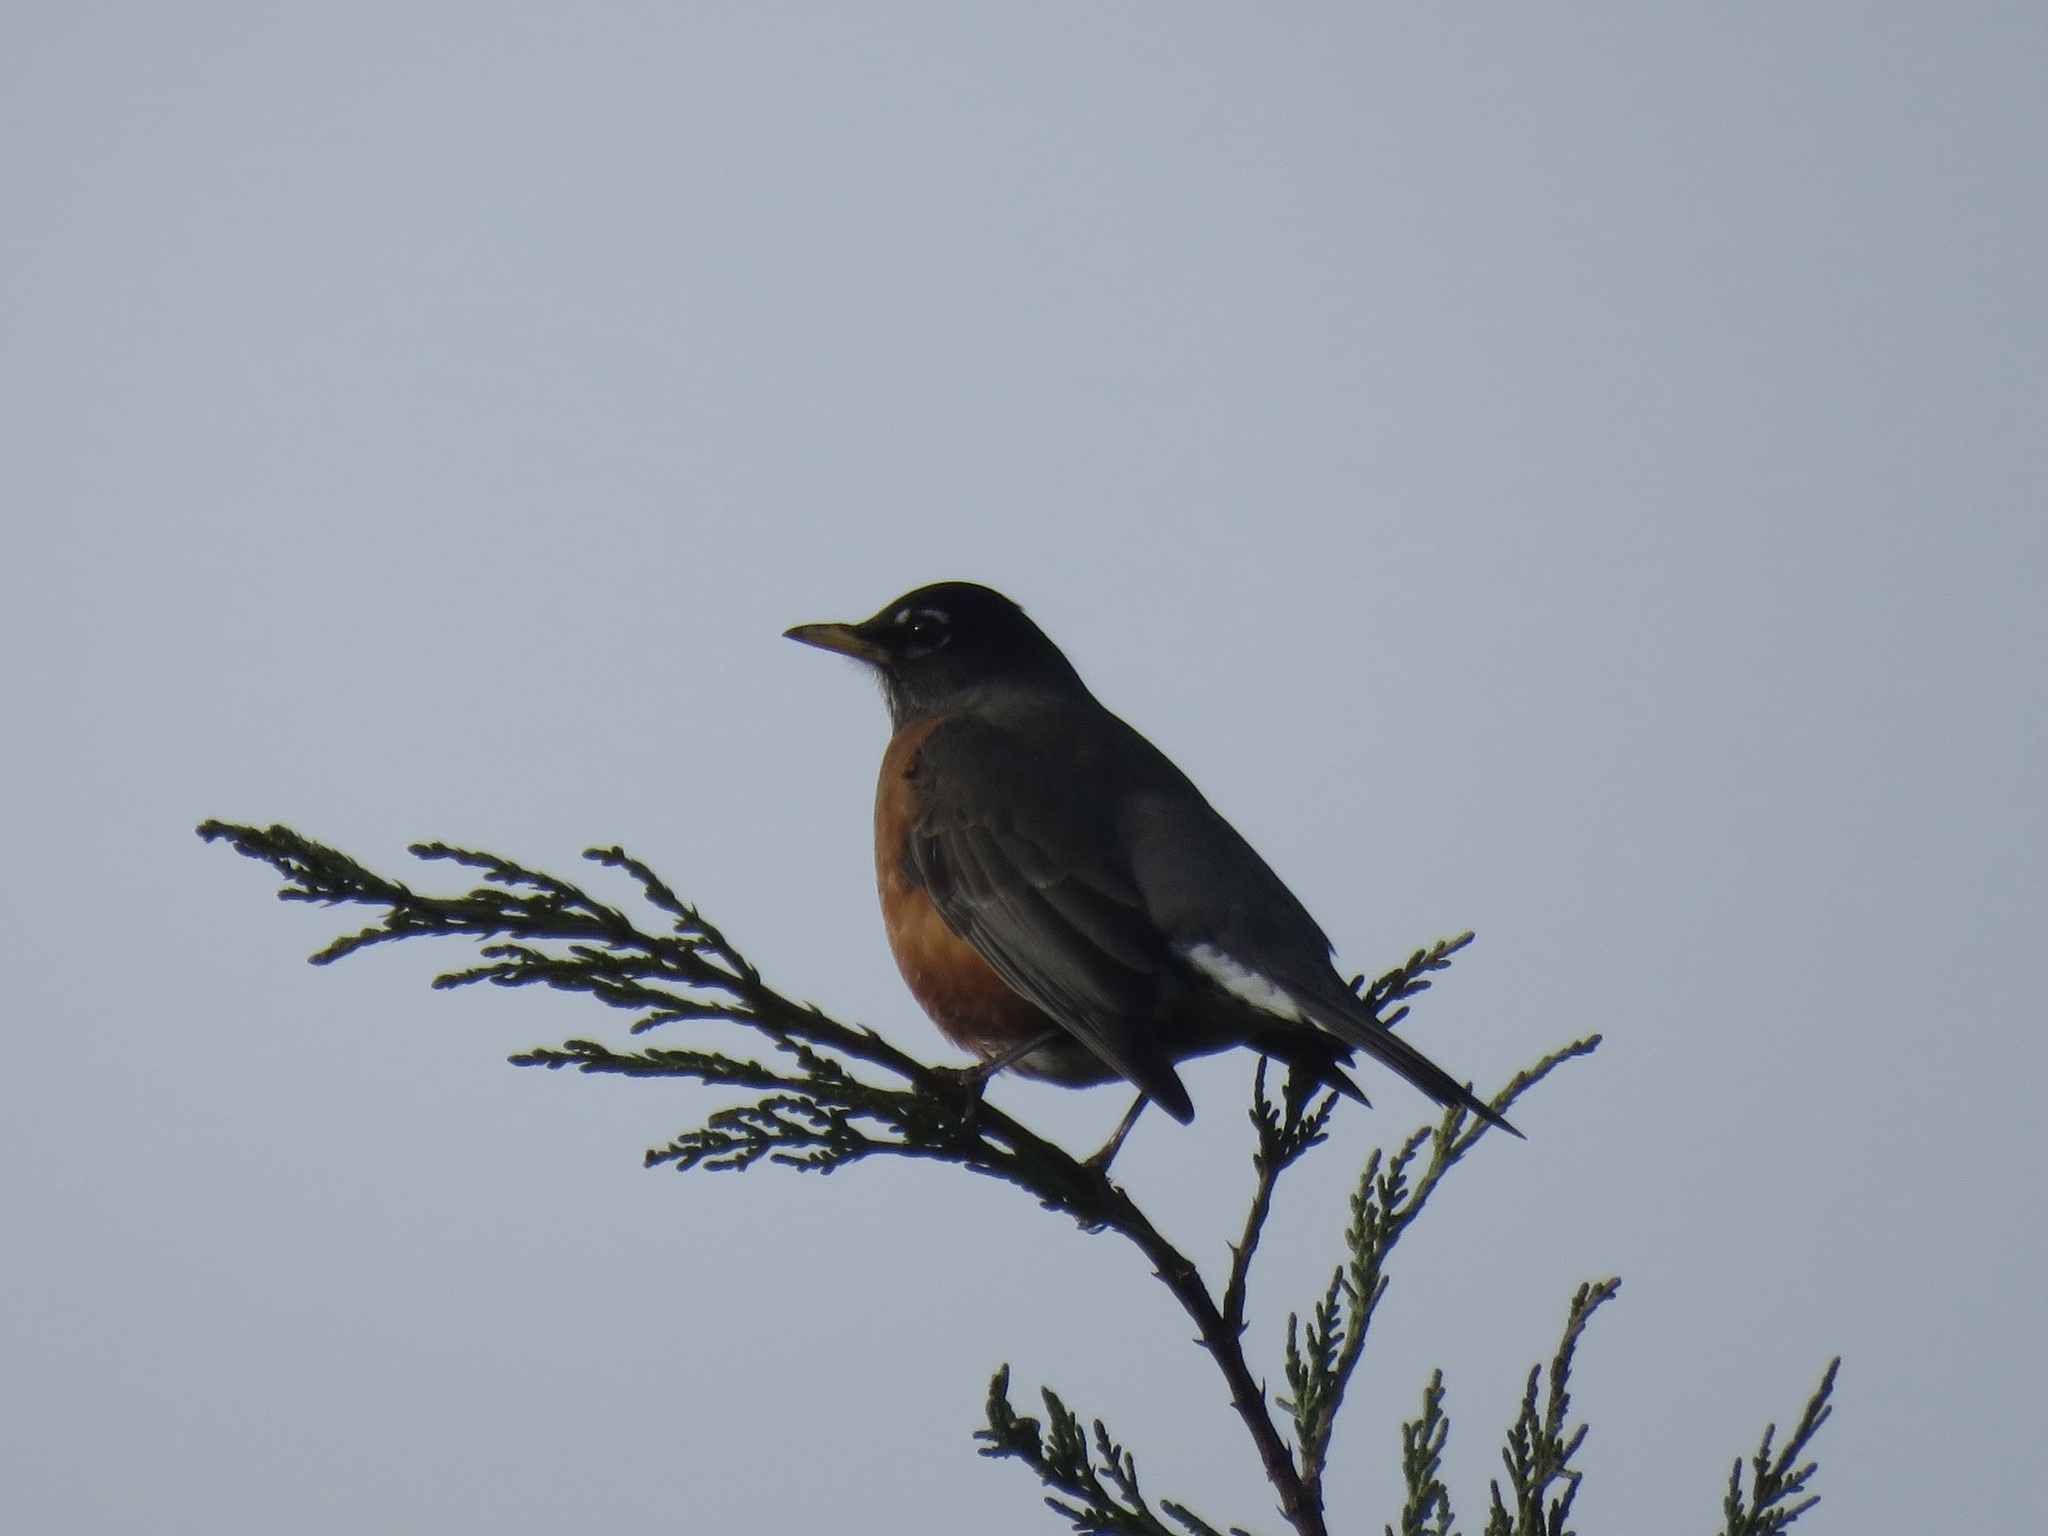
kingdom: Animalia
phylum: Chordata
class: Aves
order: Passeriformes
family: Turdidae
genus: Turdus
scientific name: Turdus migratorius
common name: American robin
